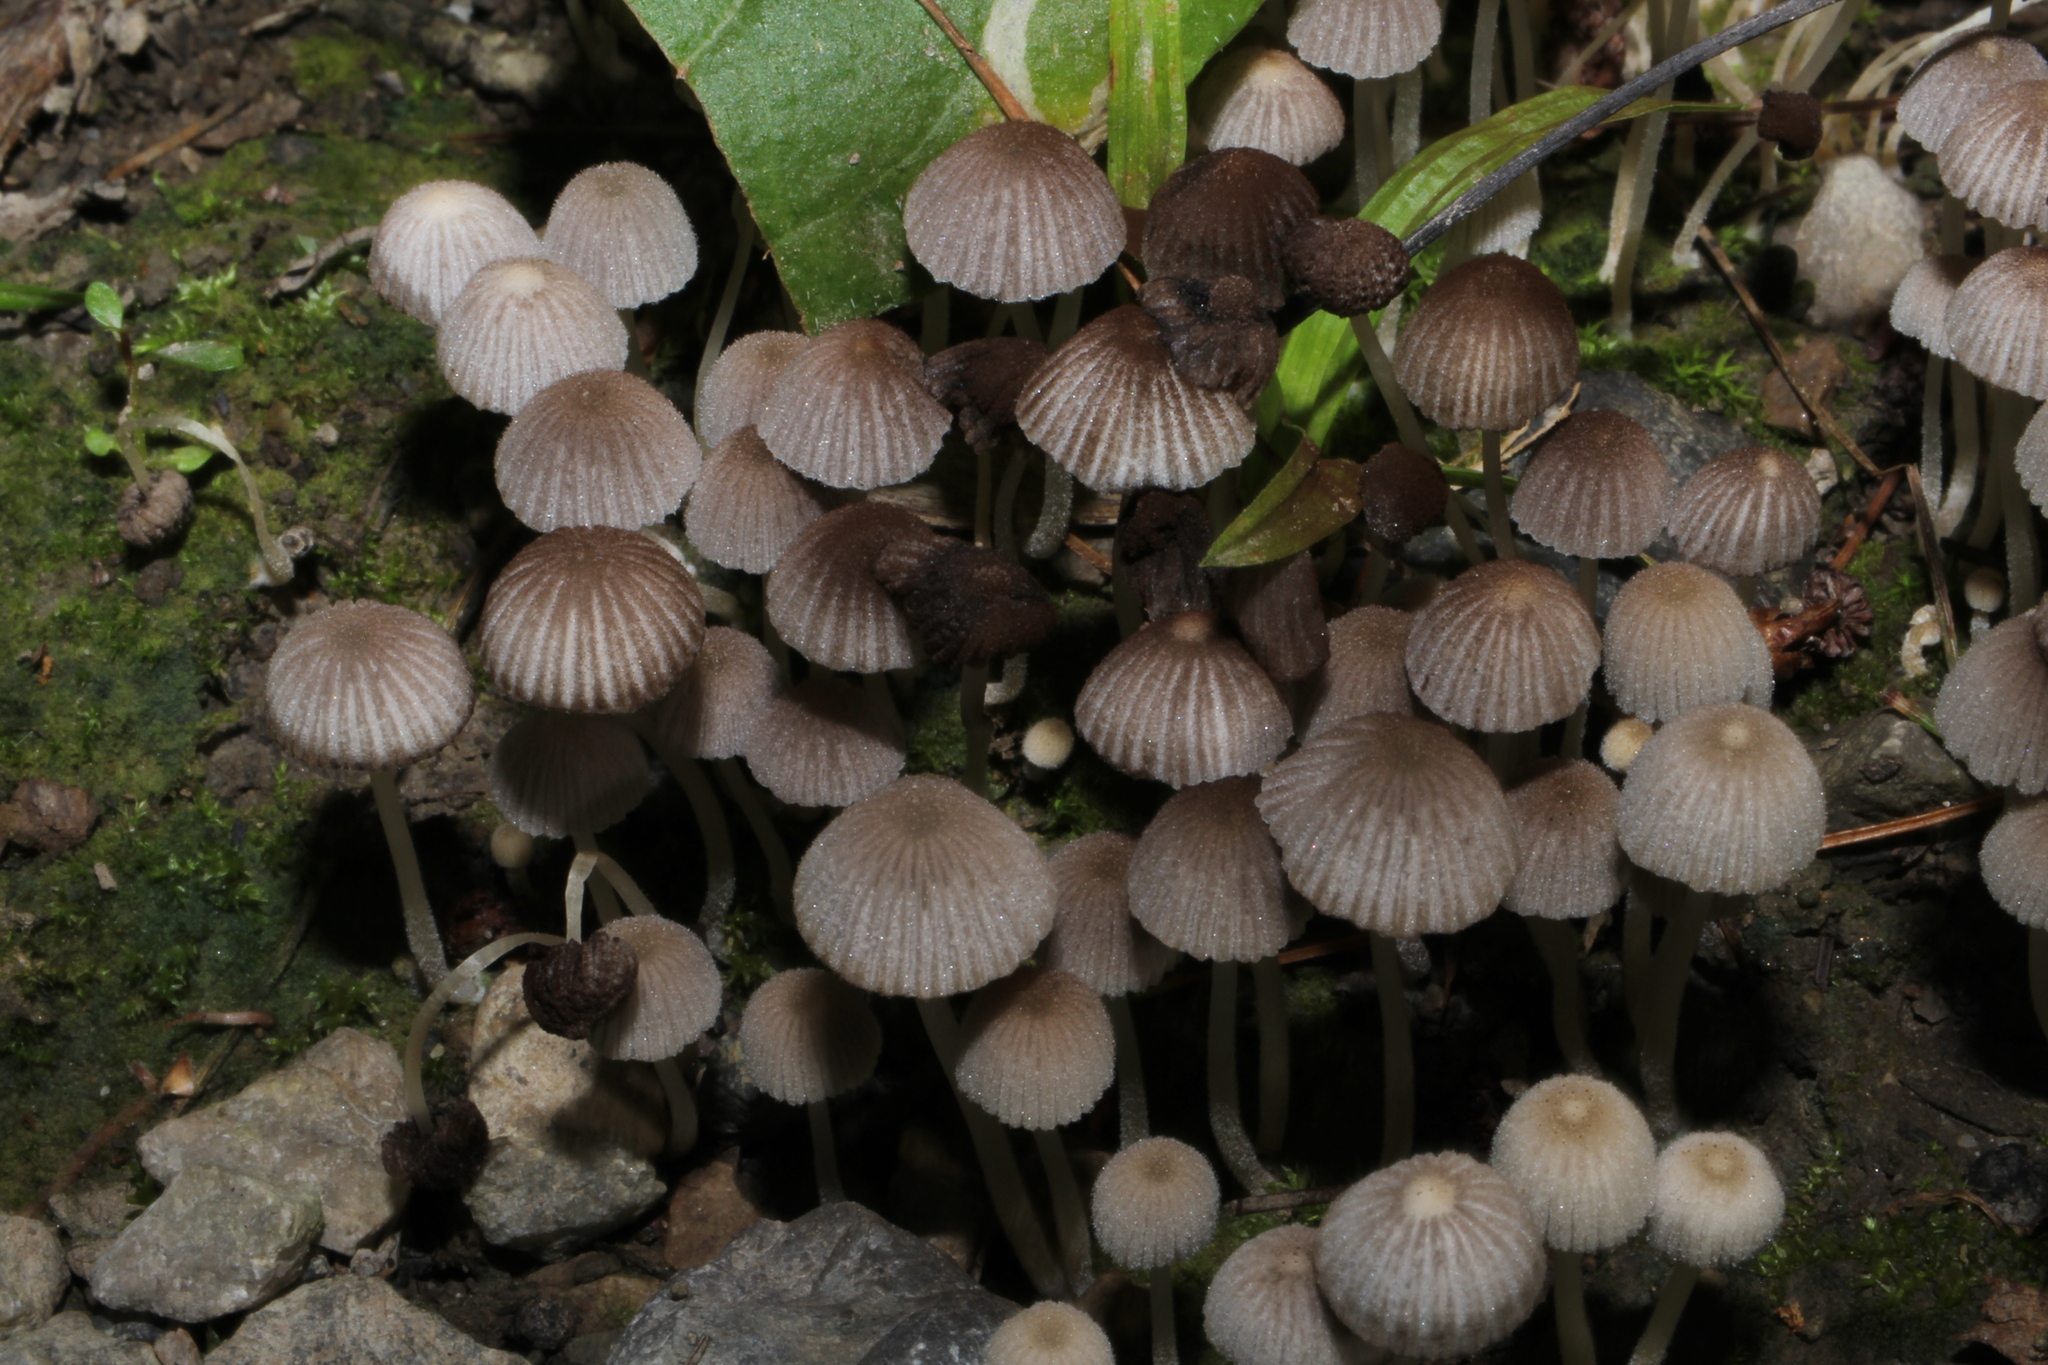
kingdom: Fungi
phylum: Basidiomycota
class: Agaricomycetes
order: Agaricales
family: Psathyrellaceae
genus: Coprinellus
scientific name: Coprinellus disseminatus
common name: Fairies' bonnets
